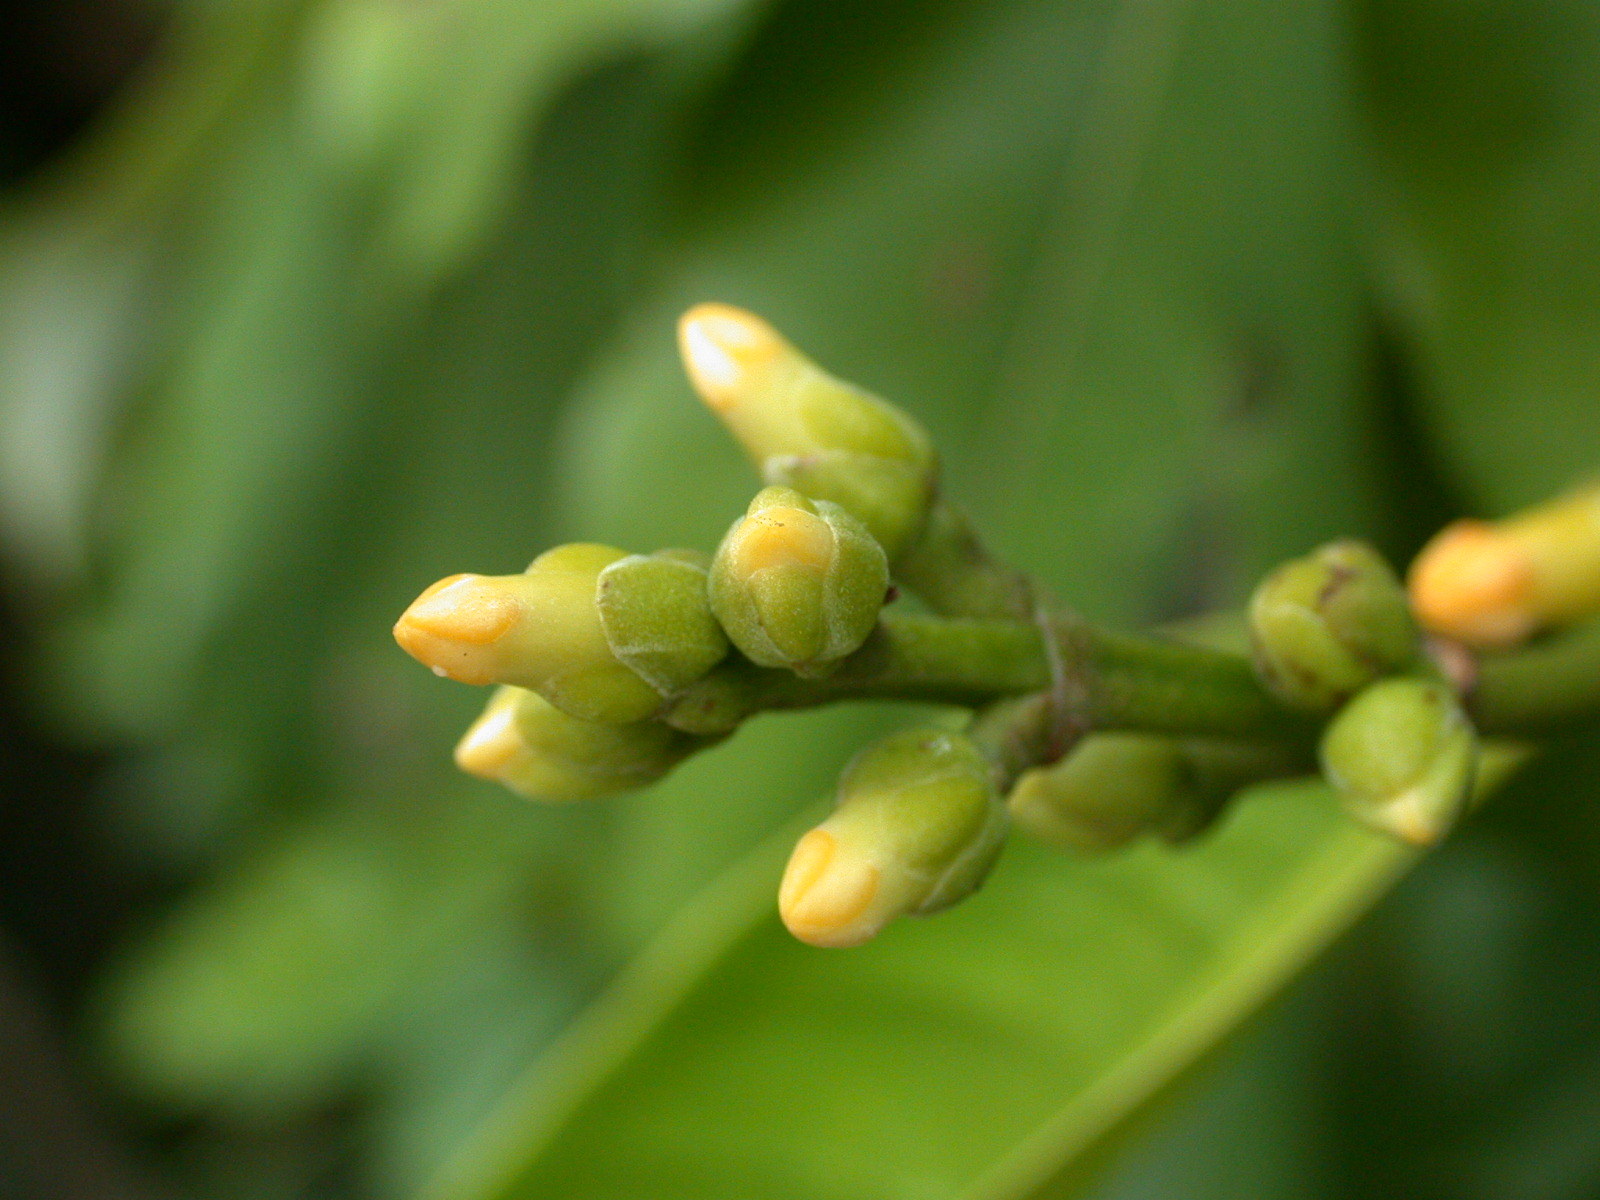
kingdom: Plantae
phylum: Tracheophyta
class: Magnoliopsida
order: Gentianales
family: Apocynaceae
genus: Leuconotis
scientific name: Leuconotis griffithii
